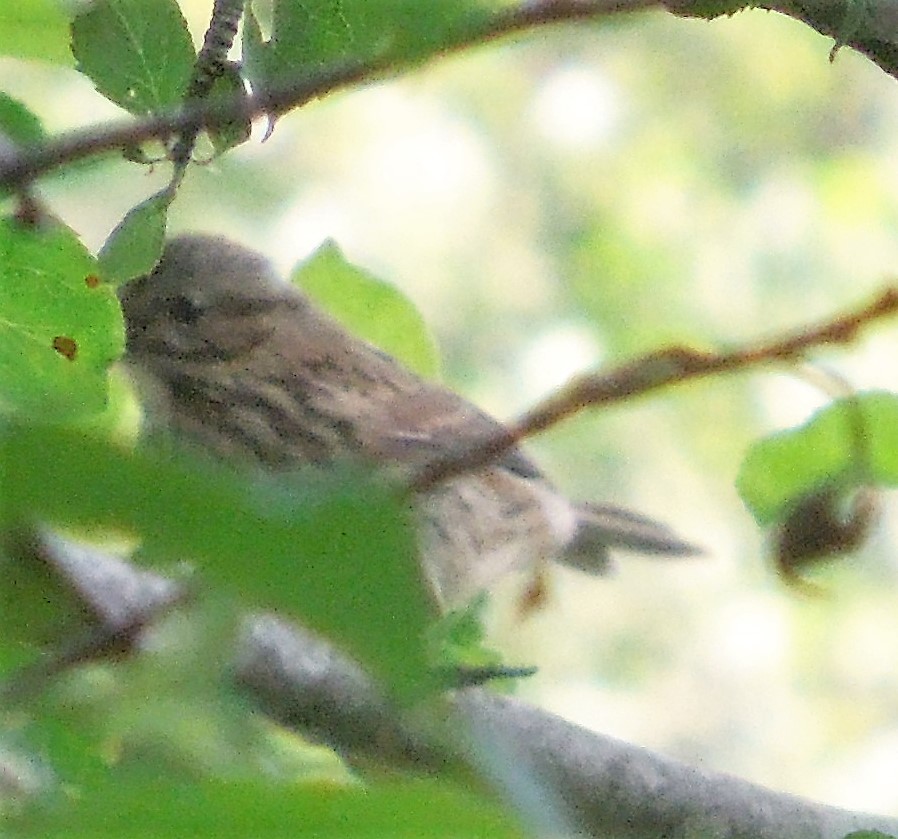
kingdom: Animalia
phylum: Chordata
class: Aves
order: Passeriformes
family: Passerellidae
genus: Melospiza
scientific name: Melospiza georgiana
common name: Swamp sparrow
